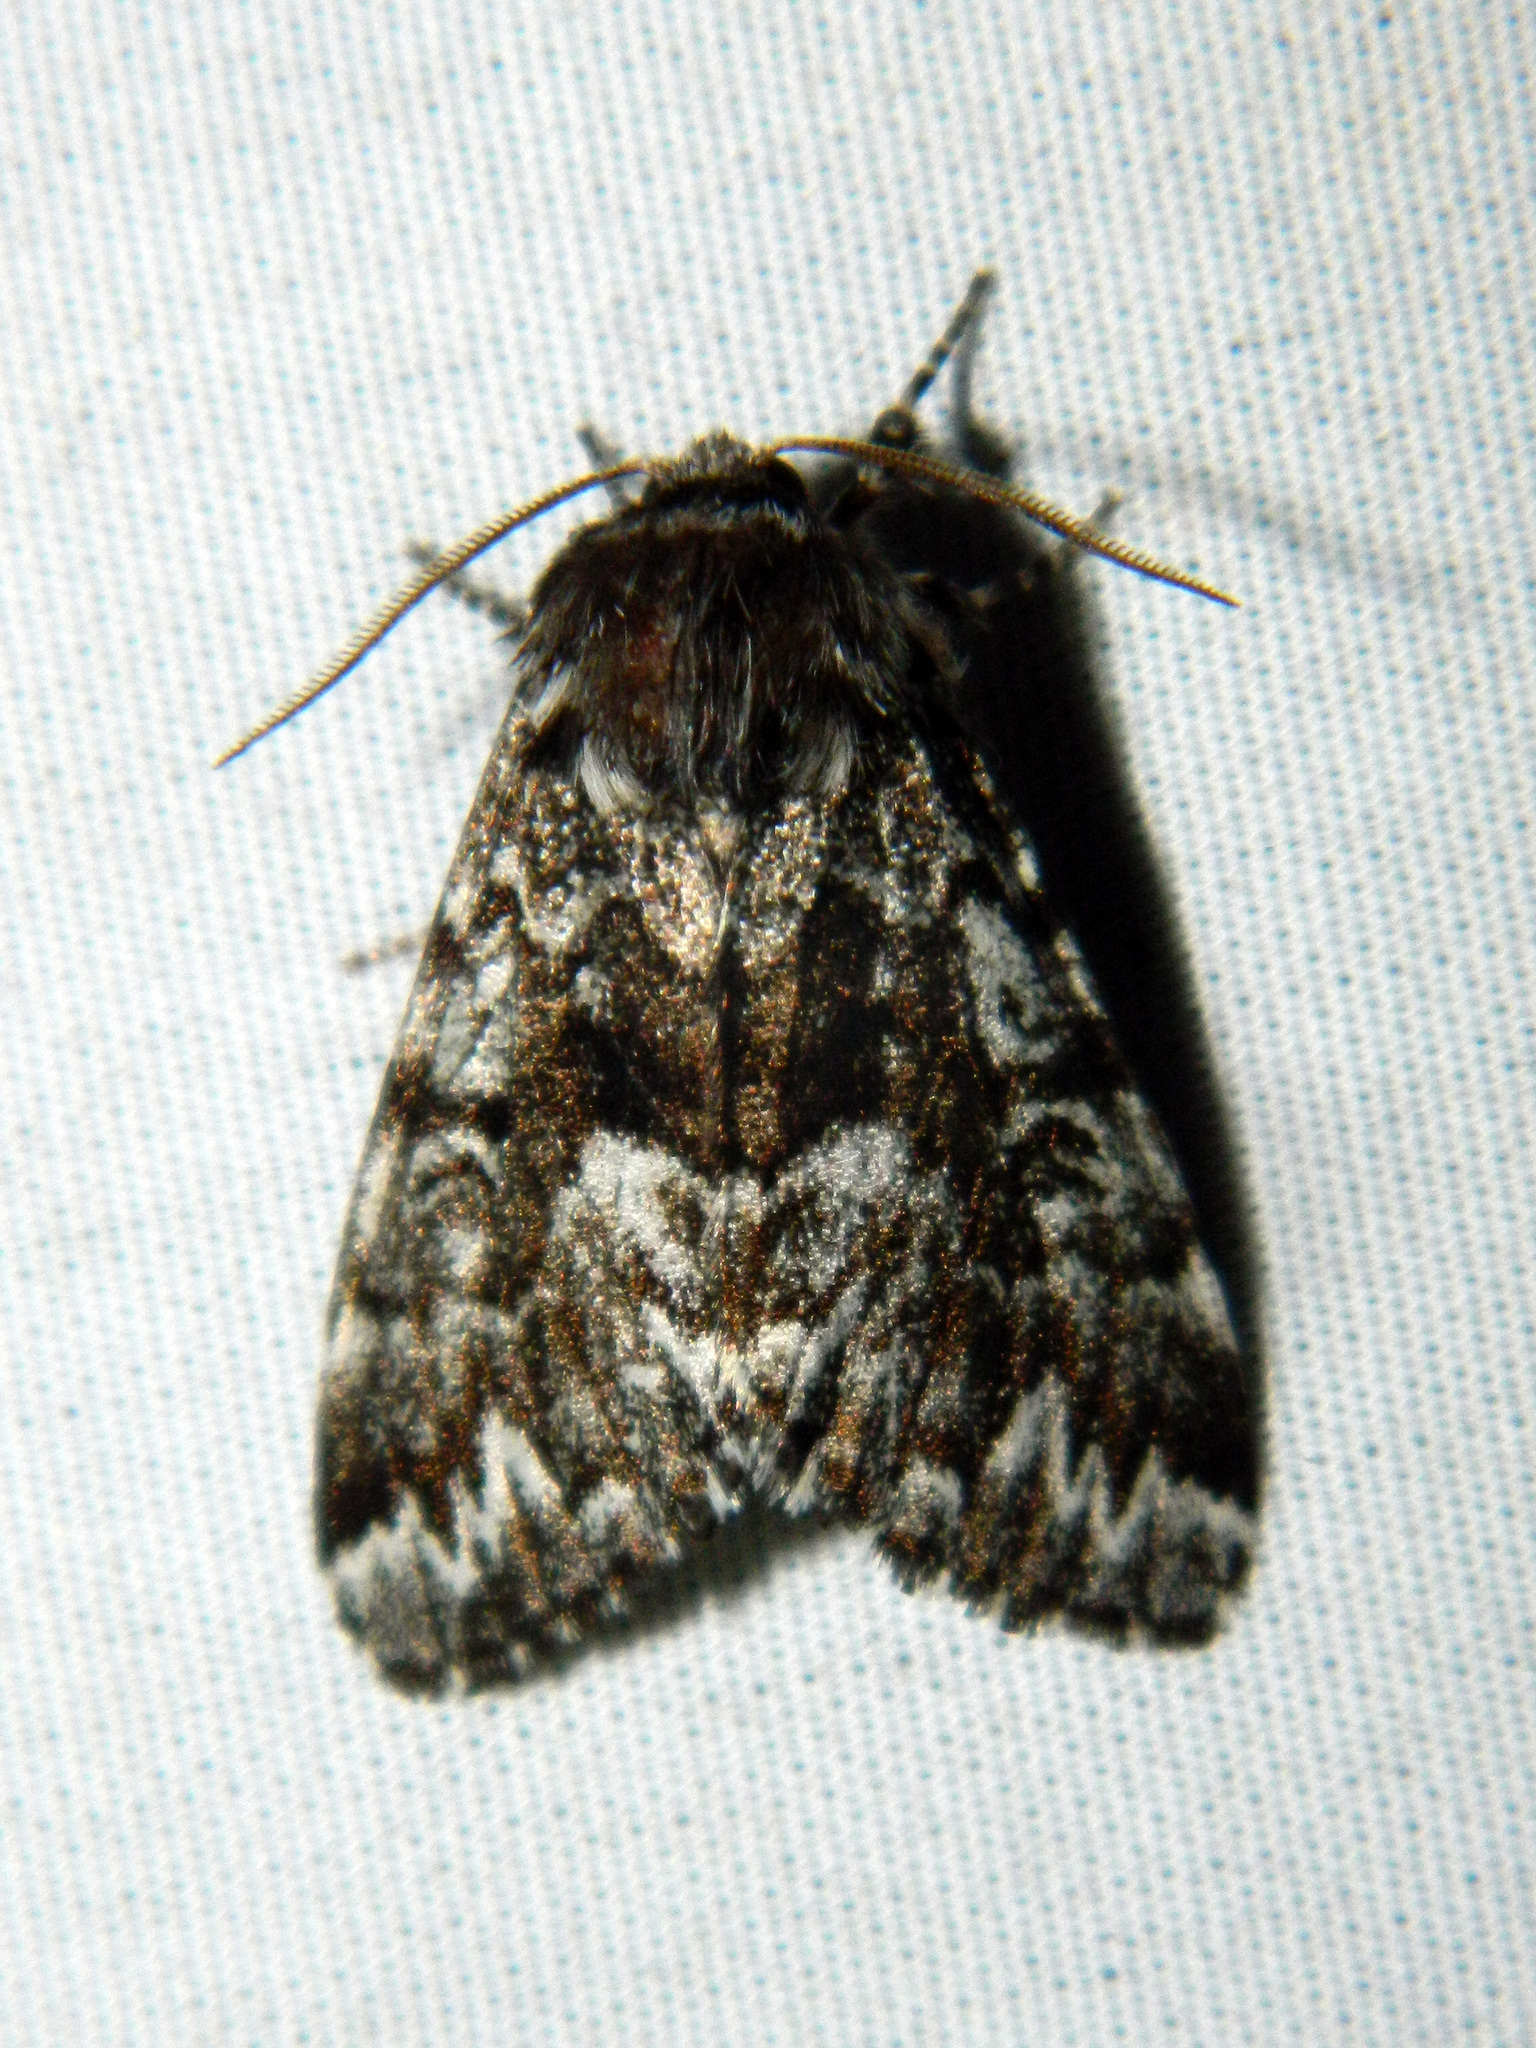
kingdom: Animalia
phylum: Arthropoda
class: Insecta
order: Lepidoptera
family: Noctuidae
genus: Panthea
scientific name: Panthea acronyctoides
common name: Black zigzag moth
